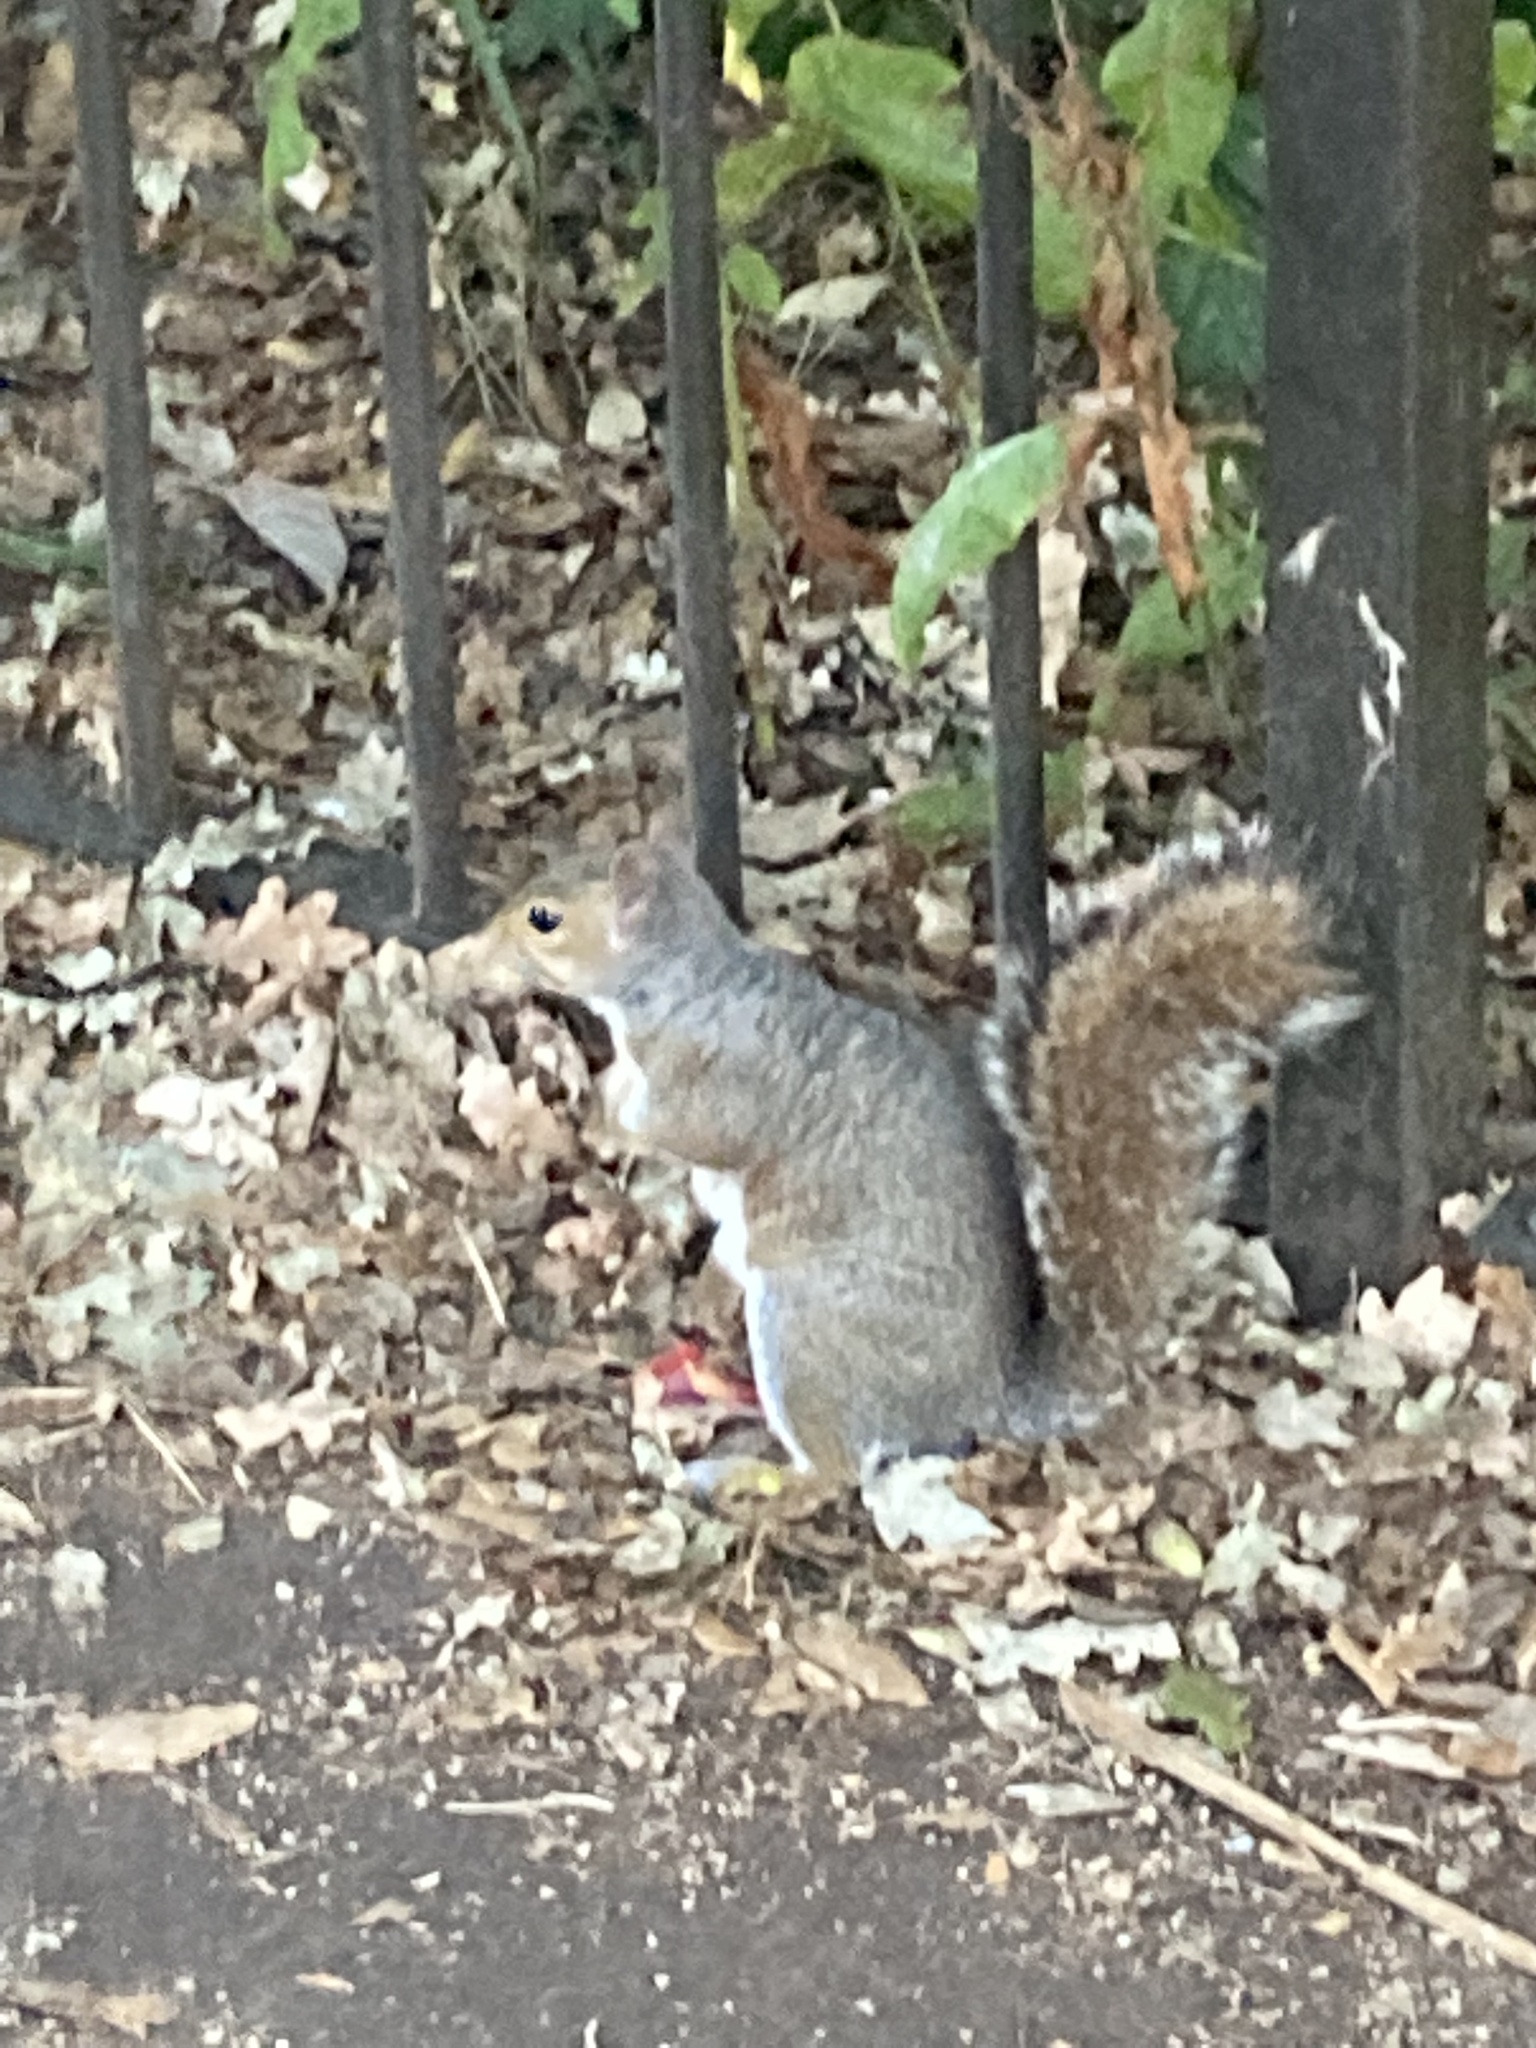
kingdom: Animalia
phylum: Chordata
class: Mammalia
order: Rodentia
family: Sciuridae
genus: Sciurus
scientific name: Sciurus carolinensis
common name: Eastern gray squirrel
